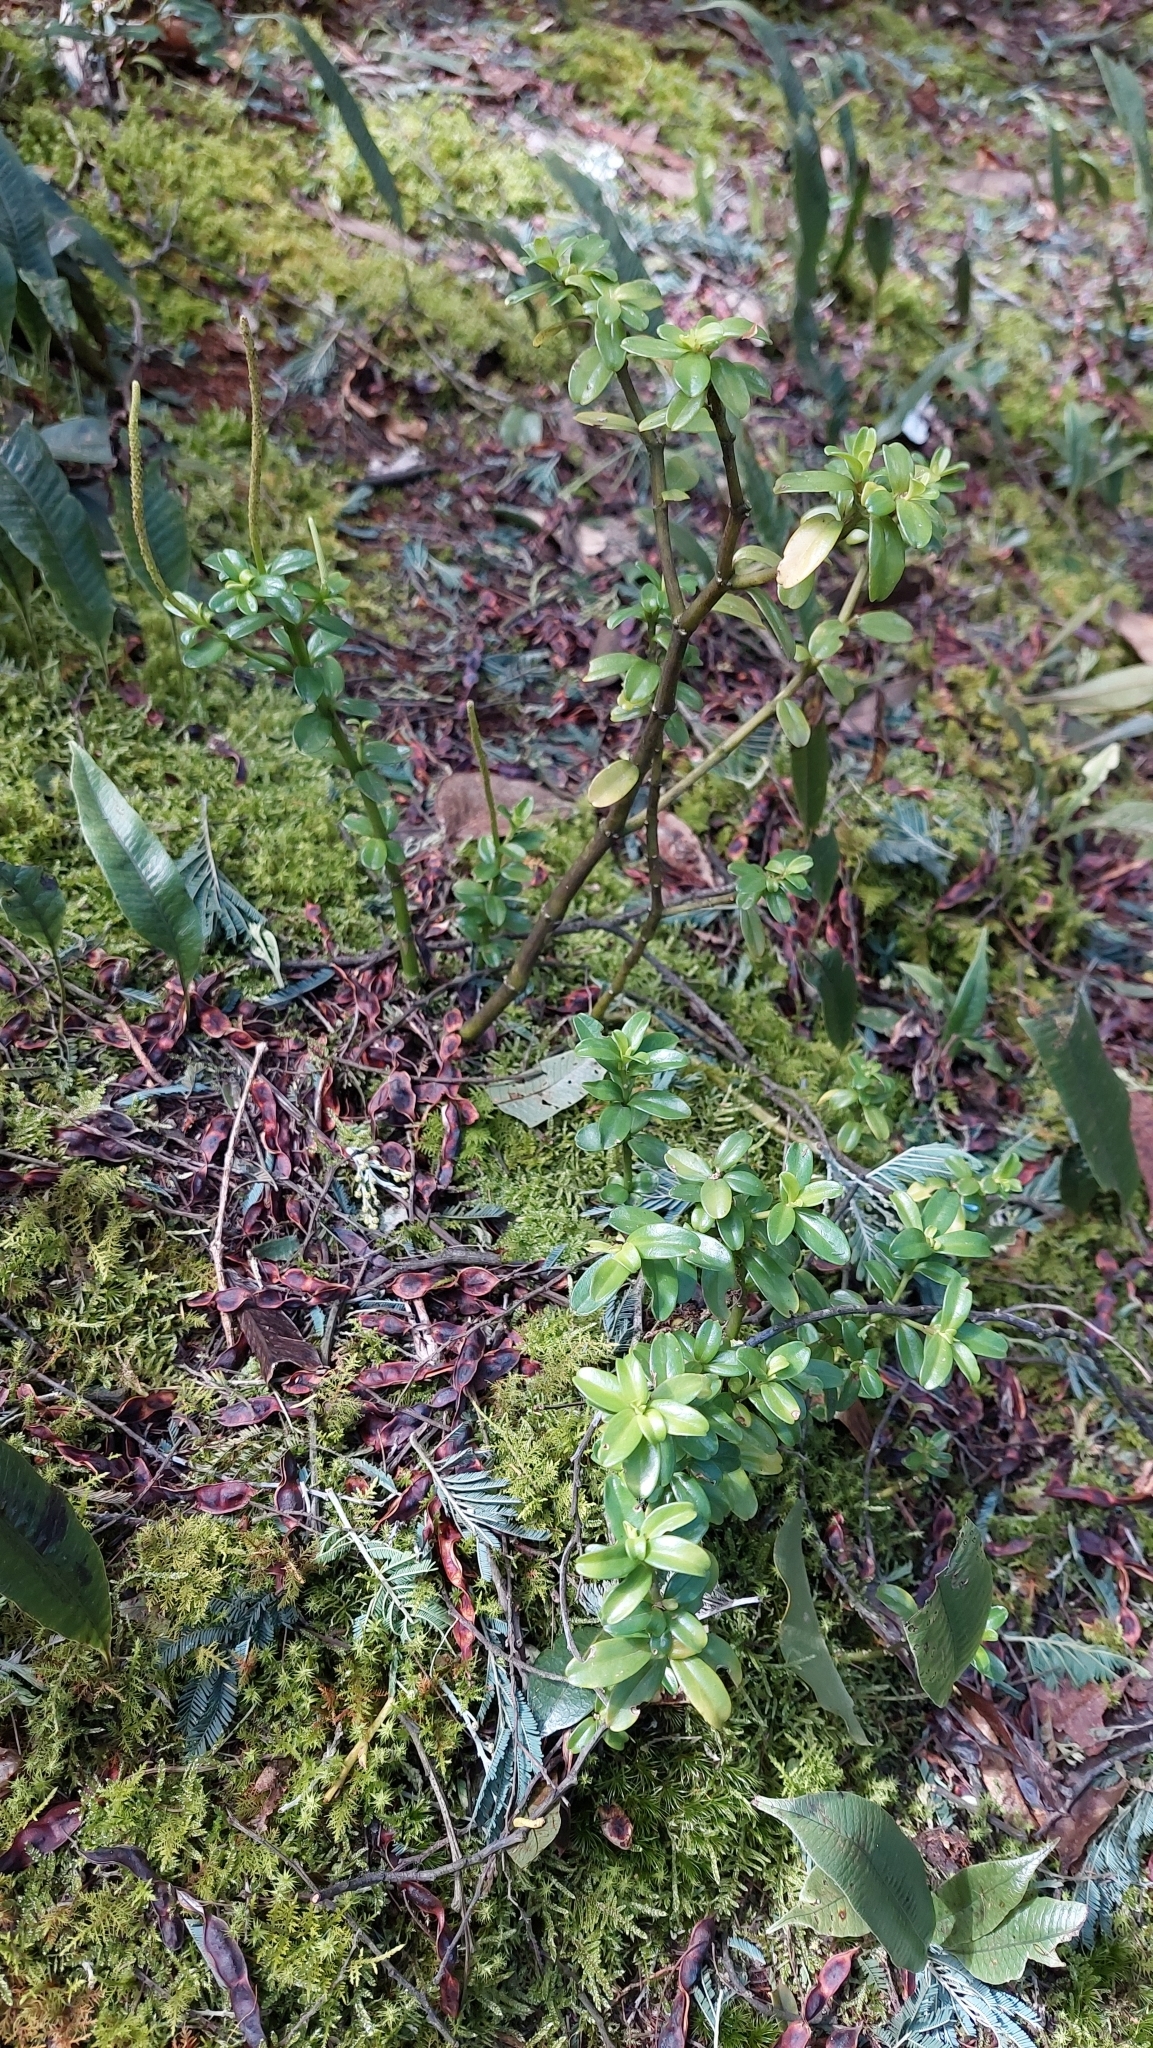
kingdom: Plantae
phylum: Tracheophyta
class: Magnoliopsida
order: Piperales
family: Piperaceae
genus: Peperomia
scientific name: Peperomia ilaloensis
